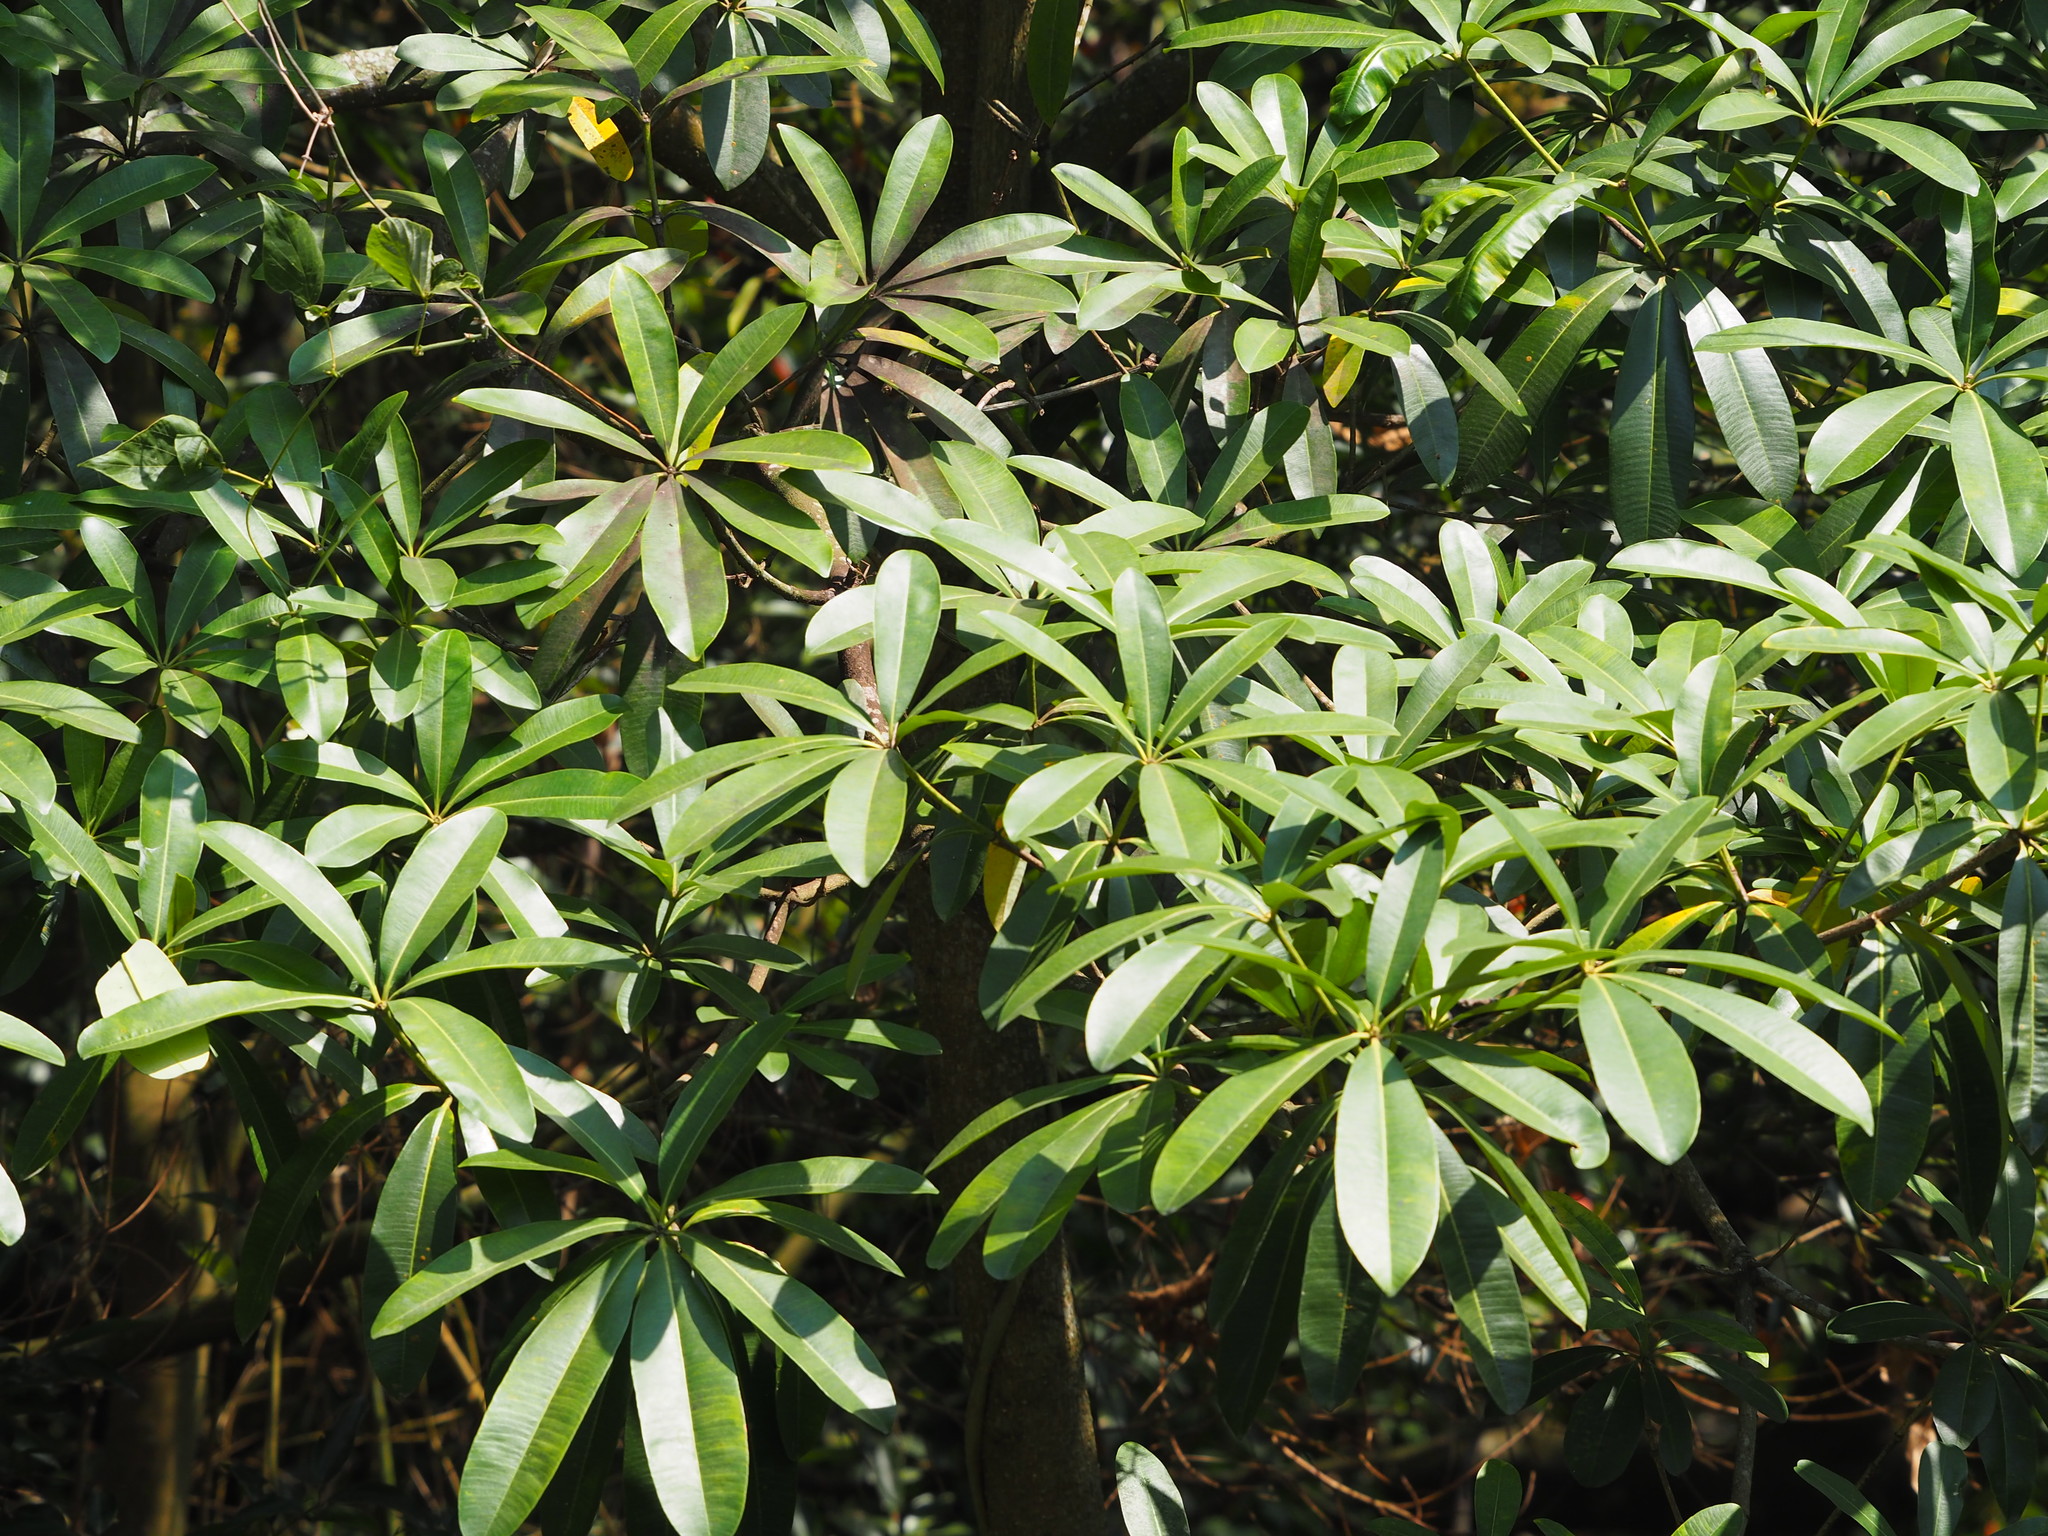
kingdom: Plantae
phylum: Tracheophyta
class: Magnoliopsida
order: Gentianales
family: Apocynaceae
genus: Alstonia
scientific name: Alstonia scholaris
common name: White cheesewood
